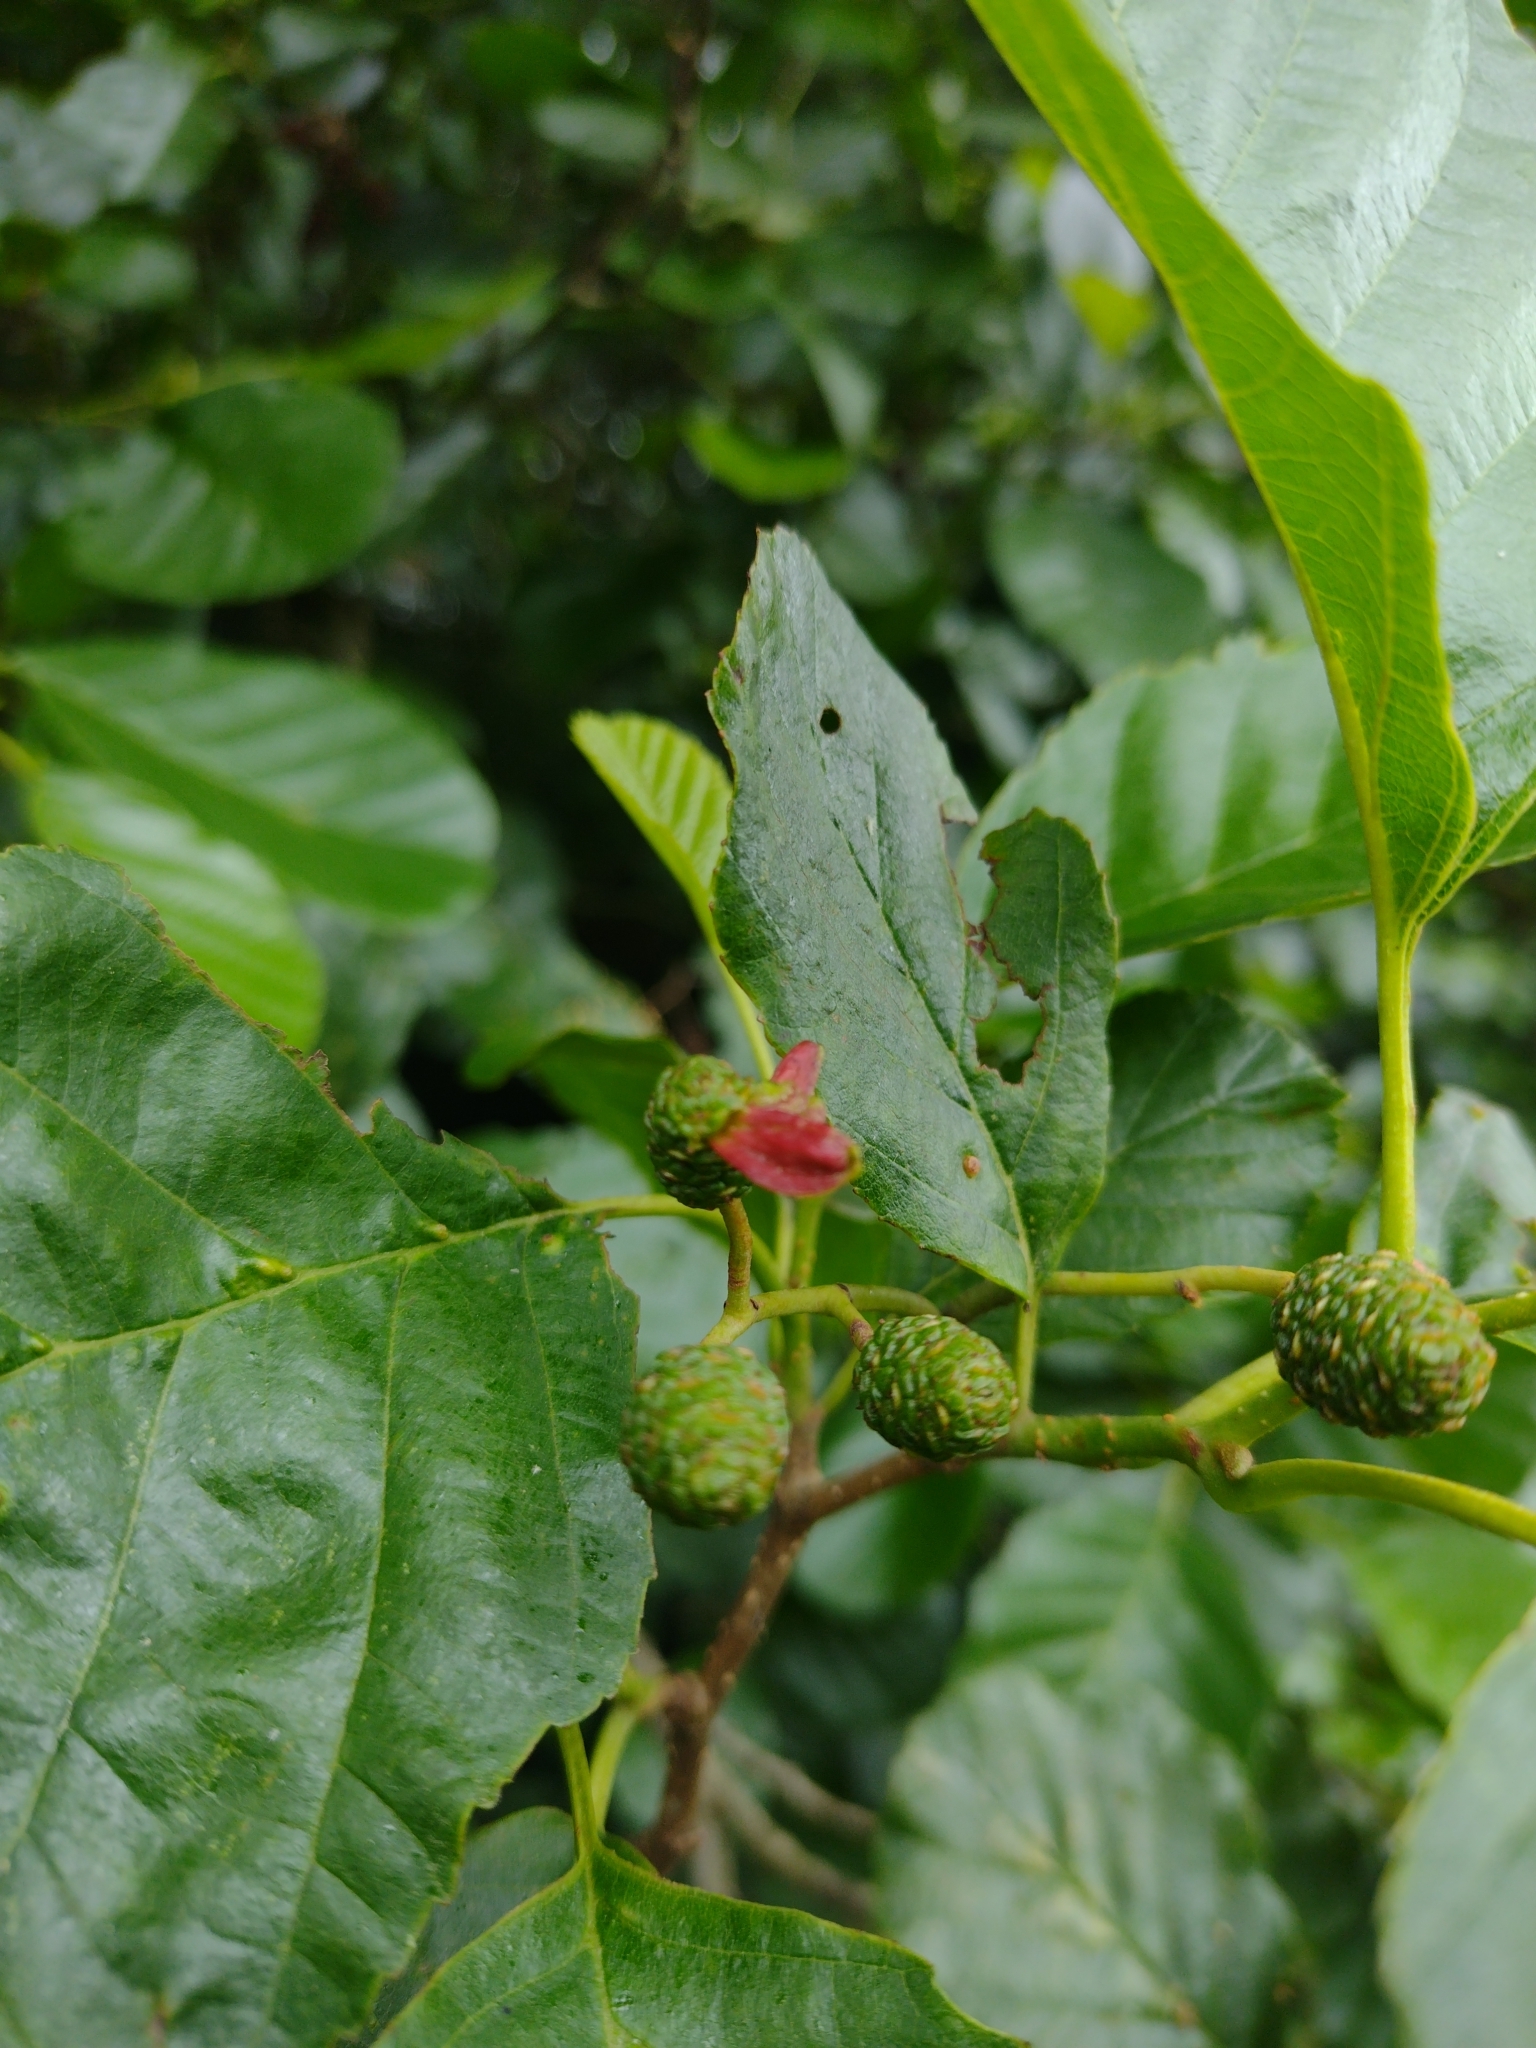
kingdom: Fungi
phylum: Ascomycota
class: Taphrinomycetes
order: Taphrinales
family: Taphrinaceae
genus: Taphrina
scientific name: Taphrina alni
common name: Alder tongue
